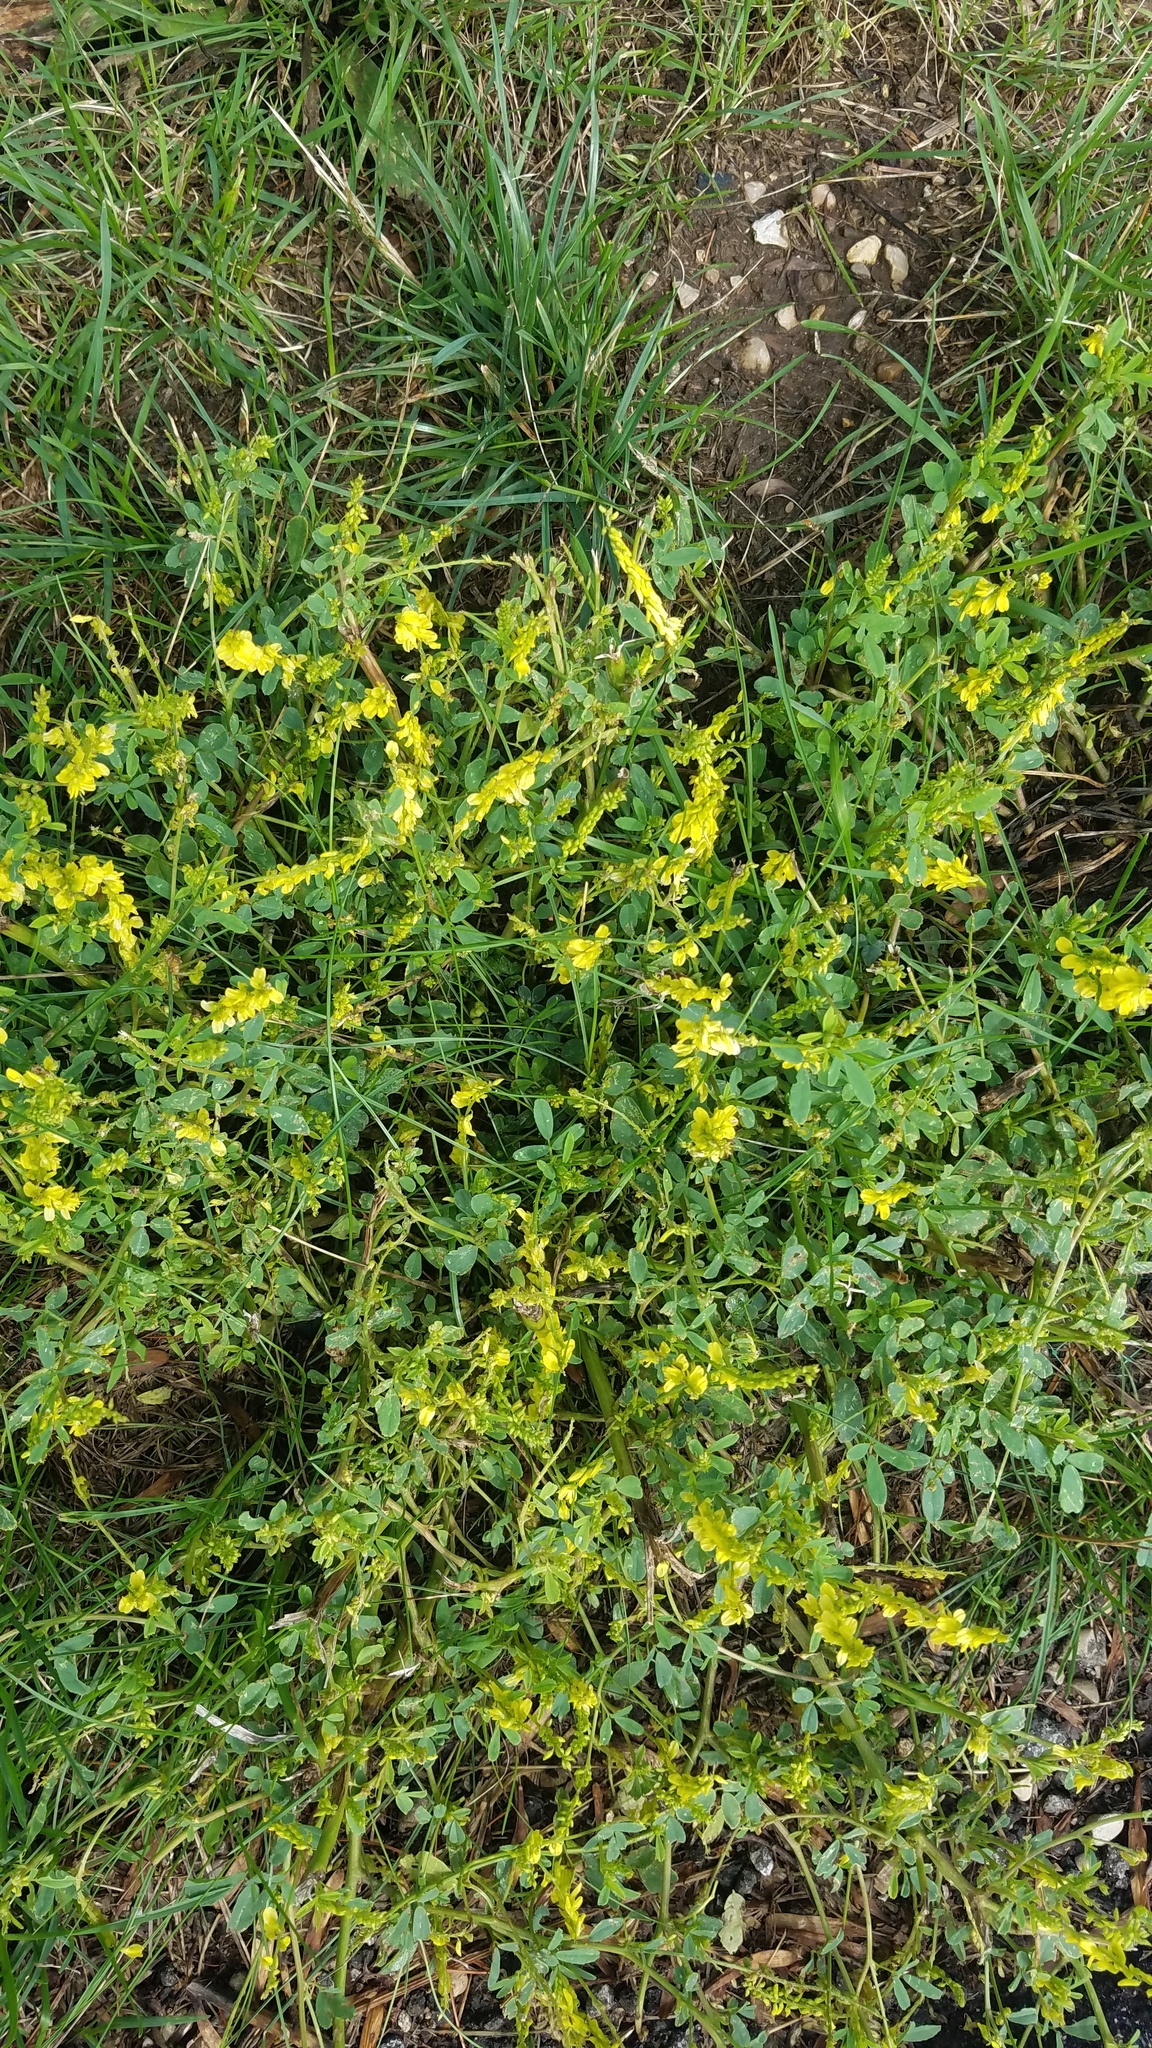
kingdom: Plantae
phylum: Tracheophyta
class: Magnoliopsida
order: Fabales
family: Fabaceae
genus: Melilotus
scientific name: Melilotus officinalis
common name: Sweetclover
